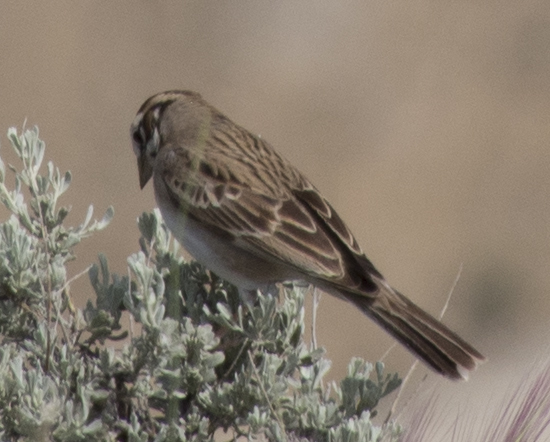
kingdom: Animalia
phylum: Chordata
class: Aves
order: Passeriformes
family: Passerellidae
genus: Chondestes
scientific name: Chondestes grammacus
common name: Lark sparrow
